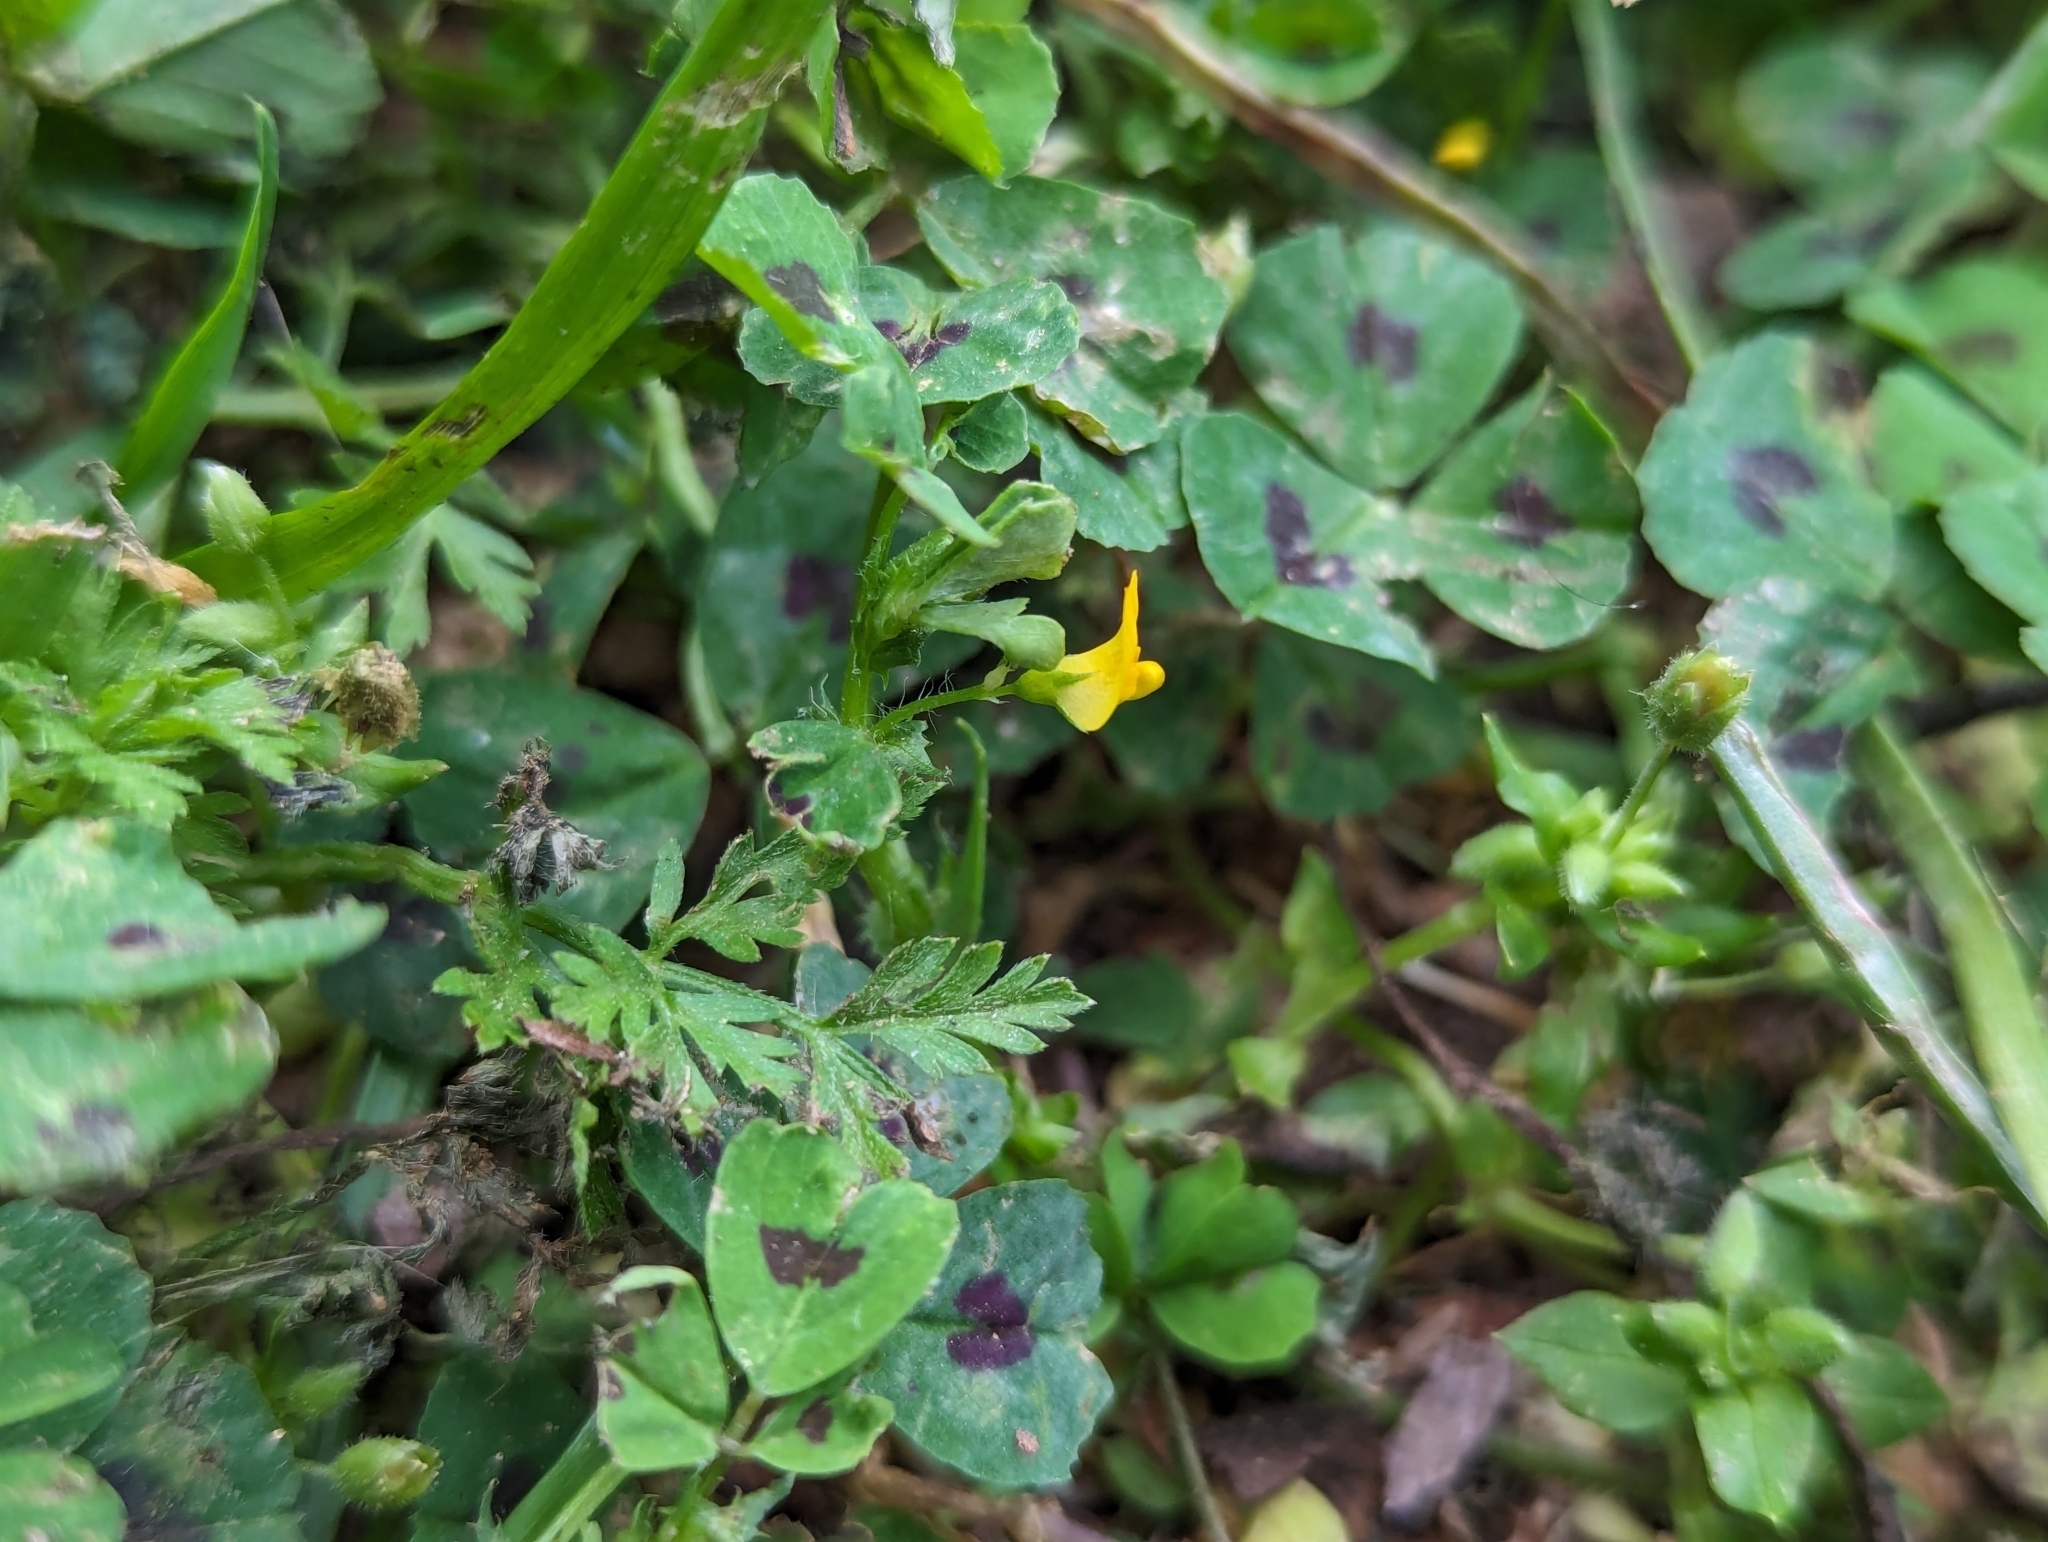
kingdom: Plantae
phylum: Tracheophyta
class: Magnoliopsida
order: Fabales
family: Fabaceae
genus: Medicago
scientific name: Medicago arabica
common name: Spotted medick
